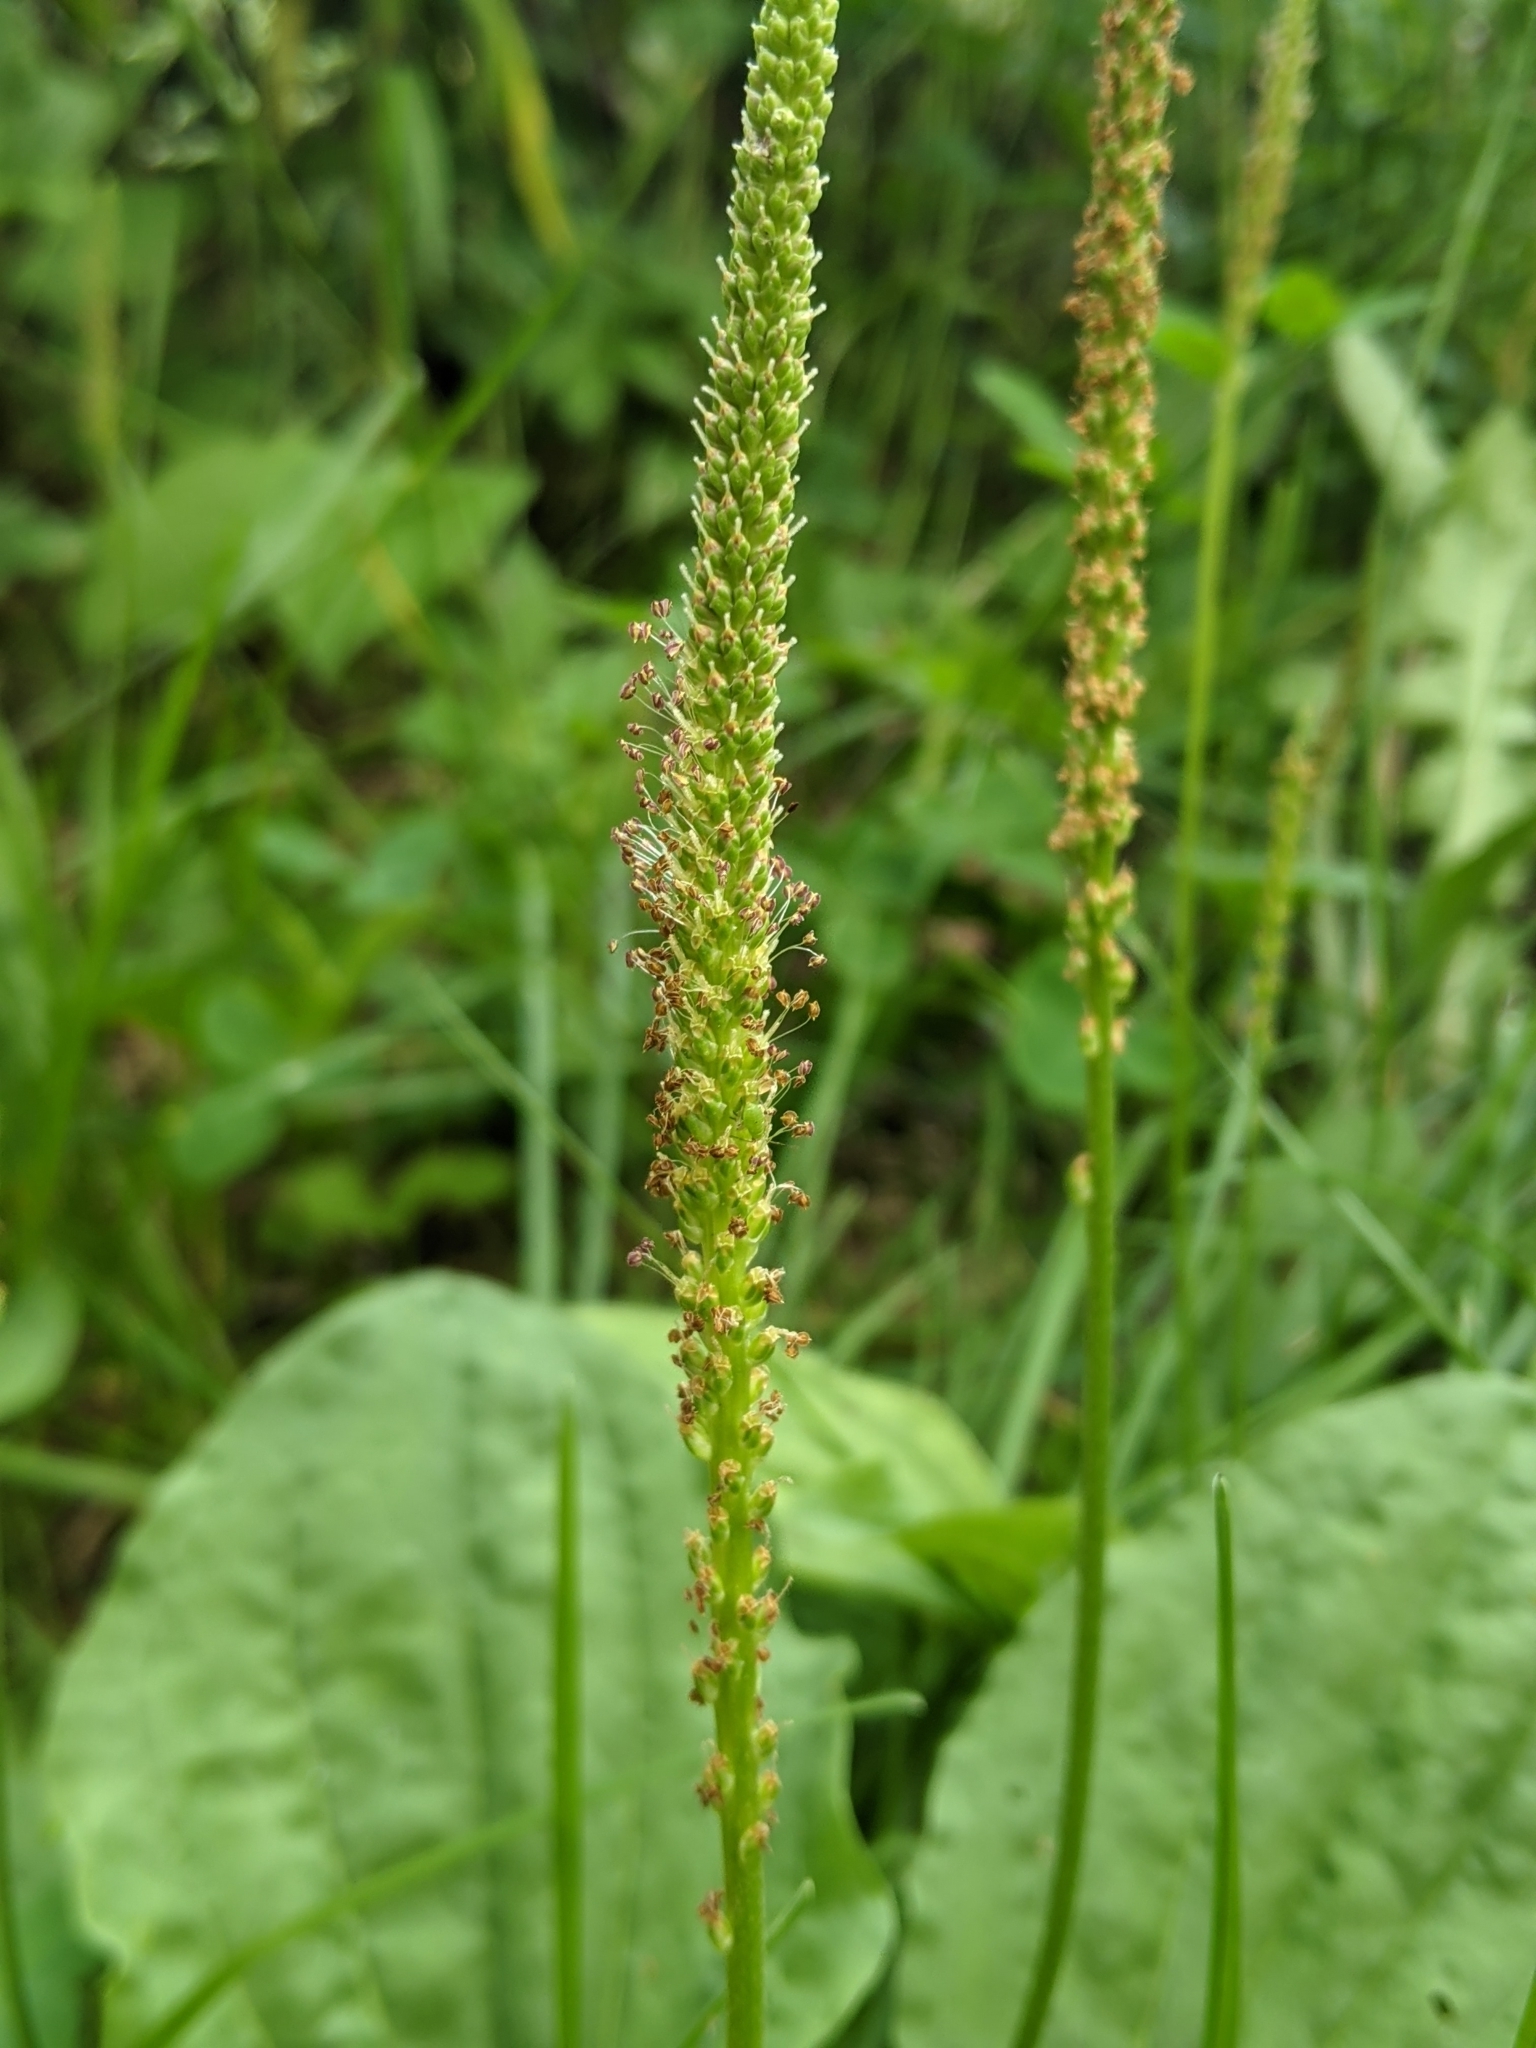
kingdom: Plantae
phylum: Tracheophyta
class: Magnoliopsida
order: Lamiales
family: Plantaginaceae
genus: Plantago
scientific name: Plantago major
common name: Common plantain
